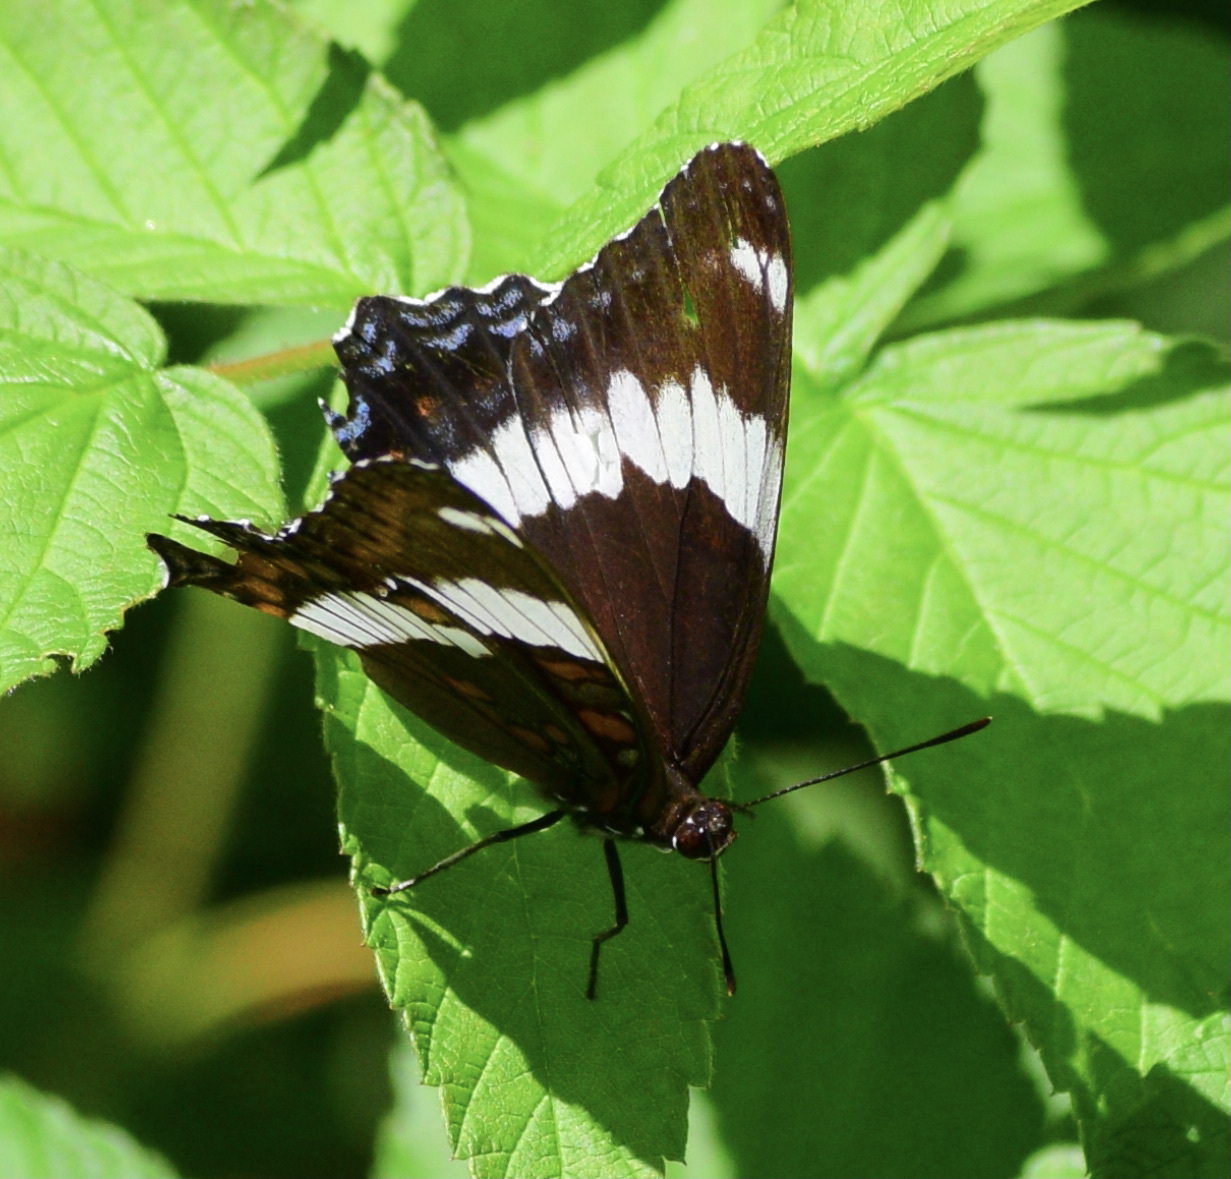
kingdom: Animalia
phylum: Arthropoda
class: Insecta
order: Lepidoptera
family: Nymphalidae
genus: Limenitis
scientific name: Limenitis arthemis
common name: Red-spotted admiral
